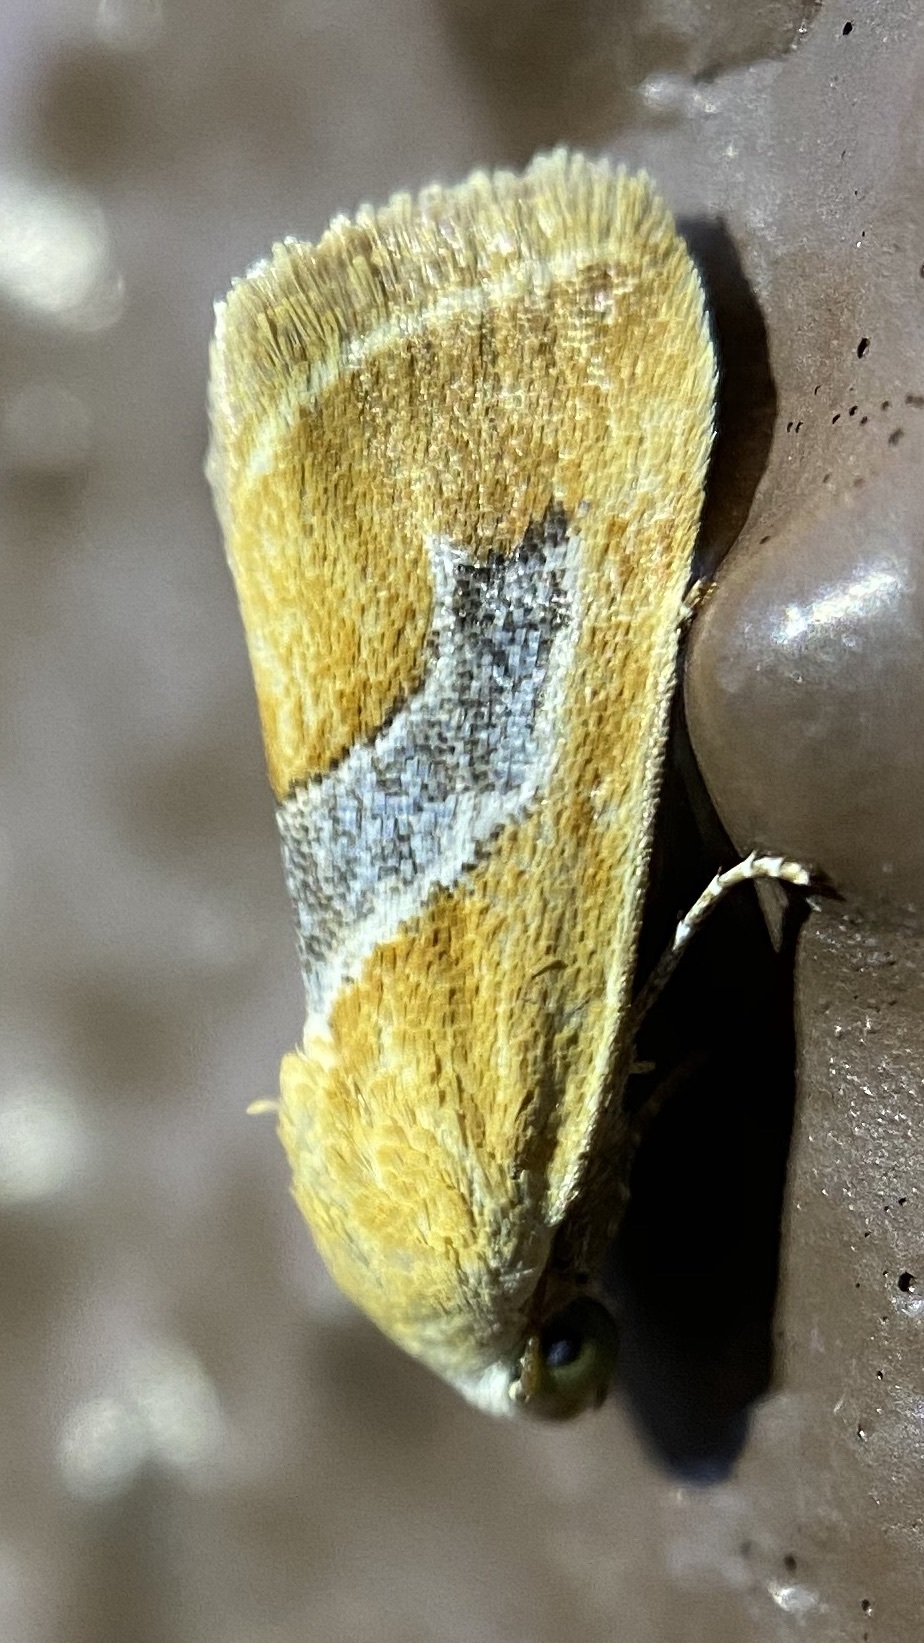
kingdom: Animalia
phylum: Arthropoda
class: Insecta
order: Lepidoptera
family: Noctuidae
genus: Ponometia
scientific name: Ponometia venustula
